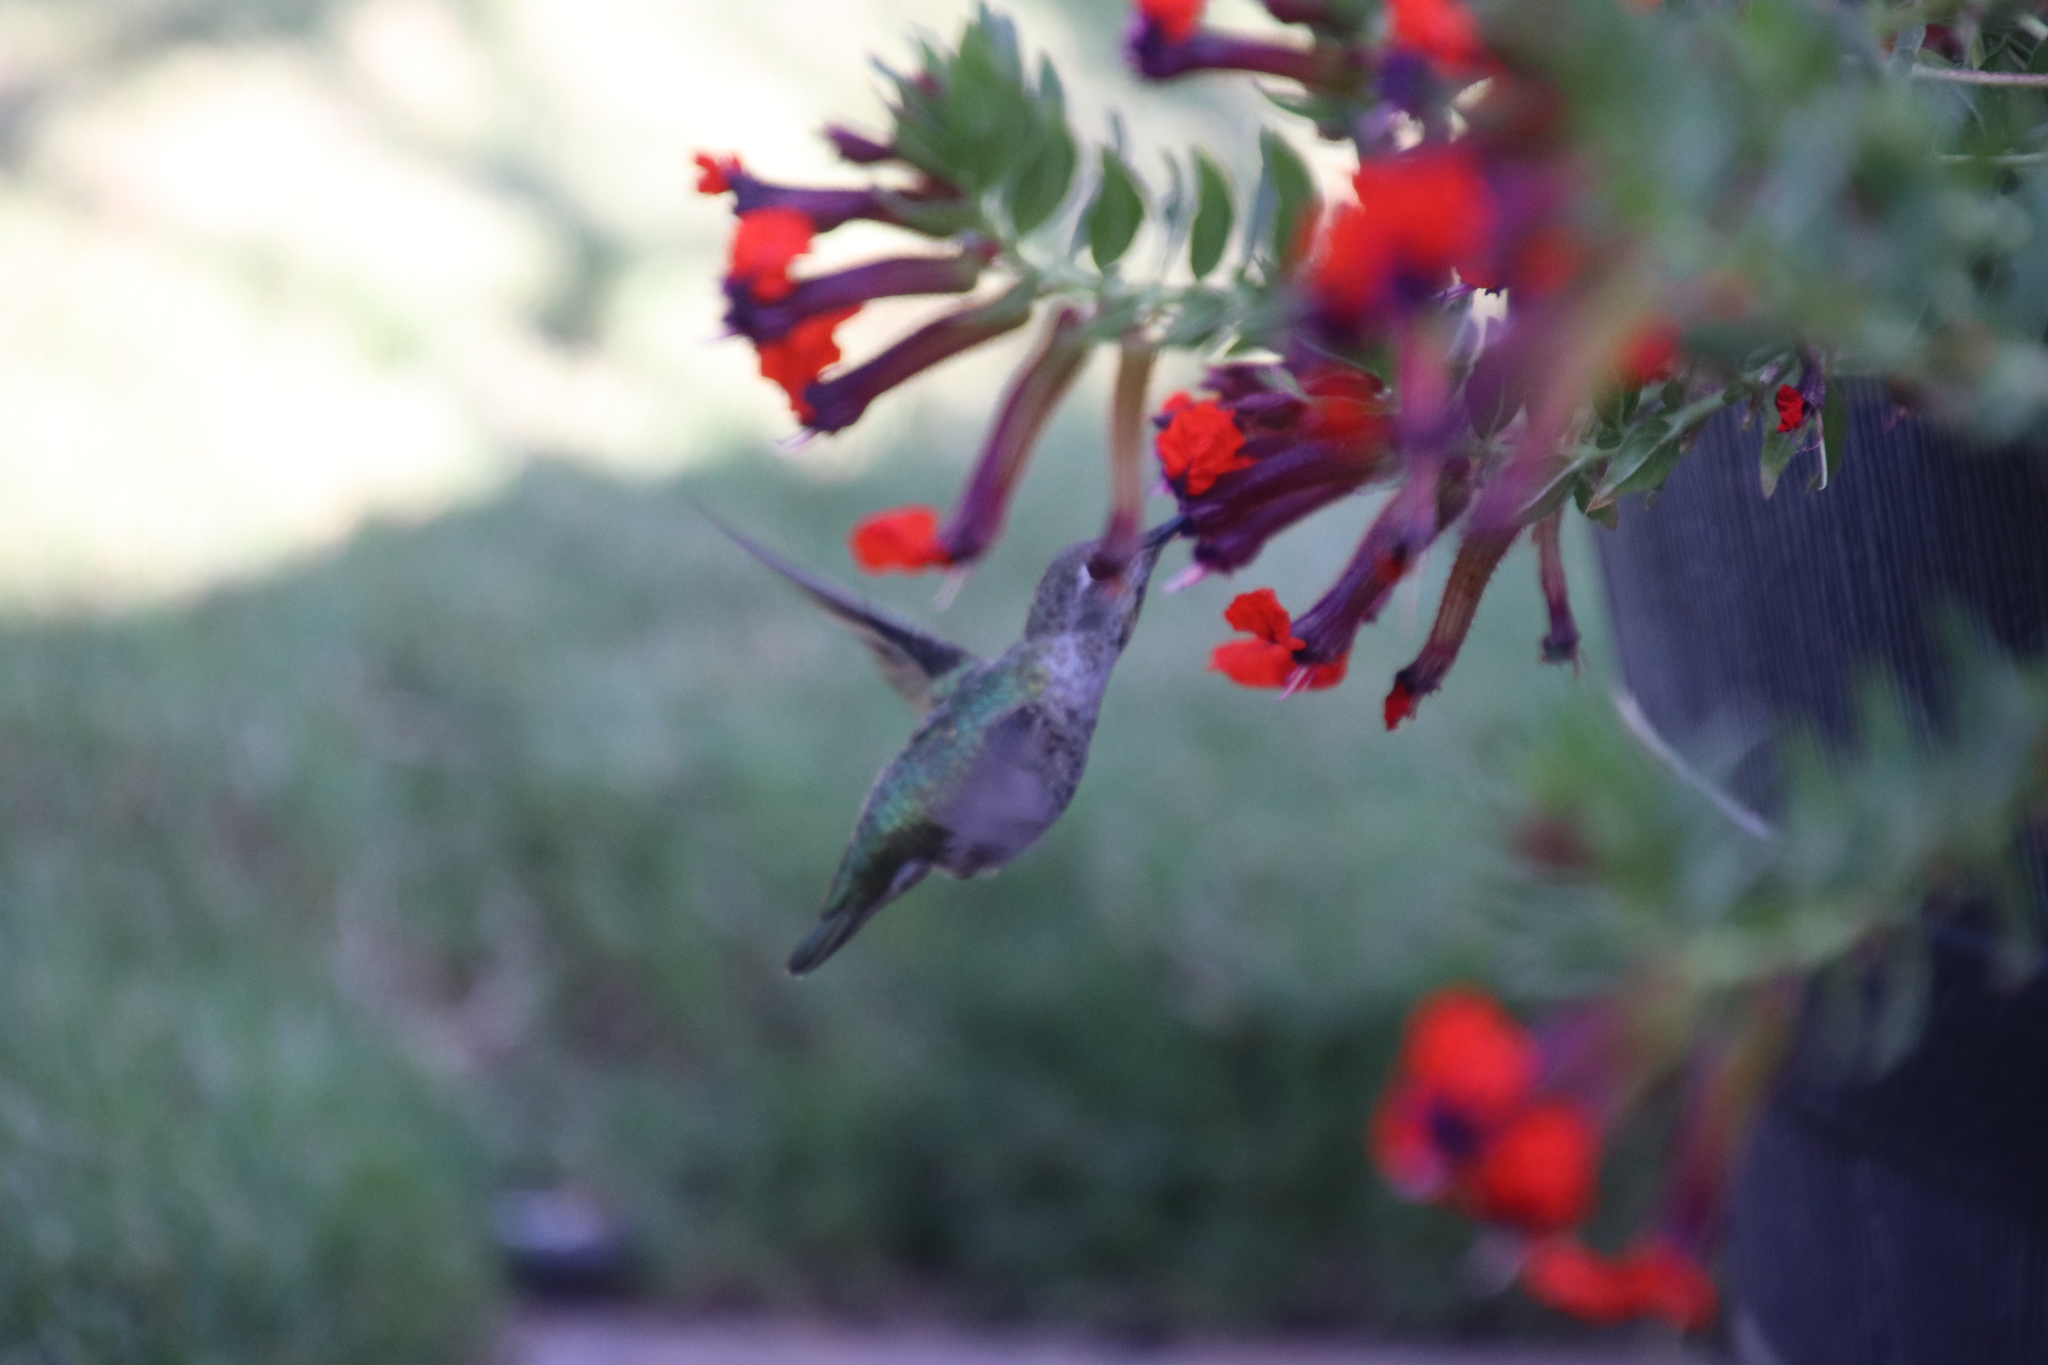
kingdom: Animalia
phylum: Chordata
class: Aves
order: Apodiformes
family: Trochilidae
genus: Calypte
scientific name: Calypte anna
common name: Anna's hummingbird
